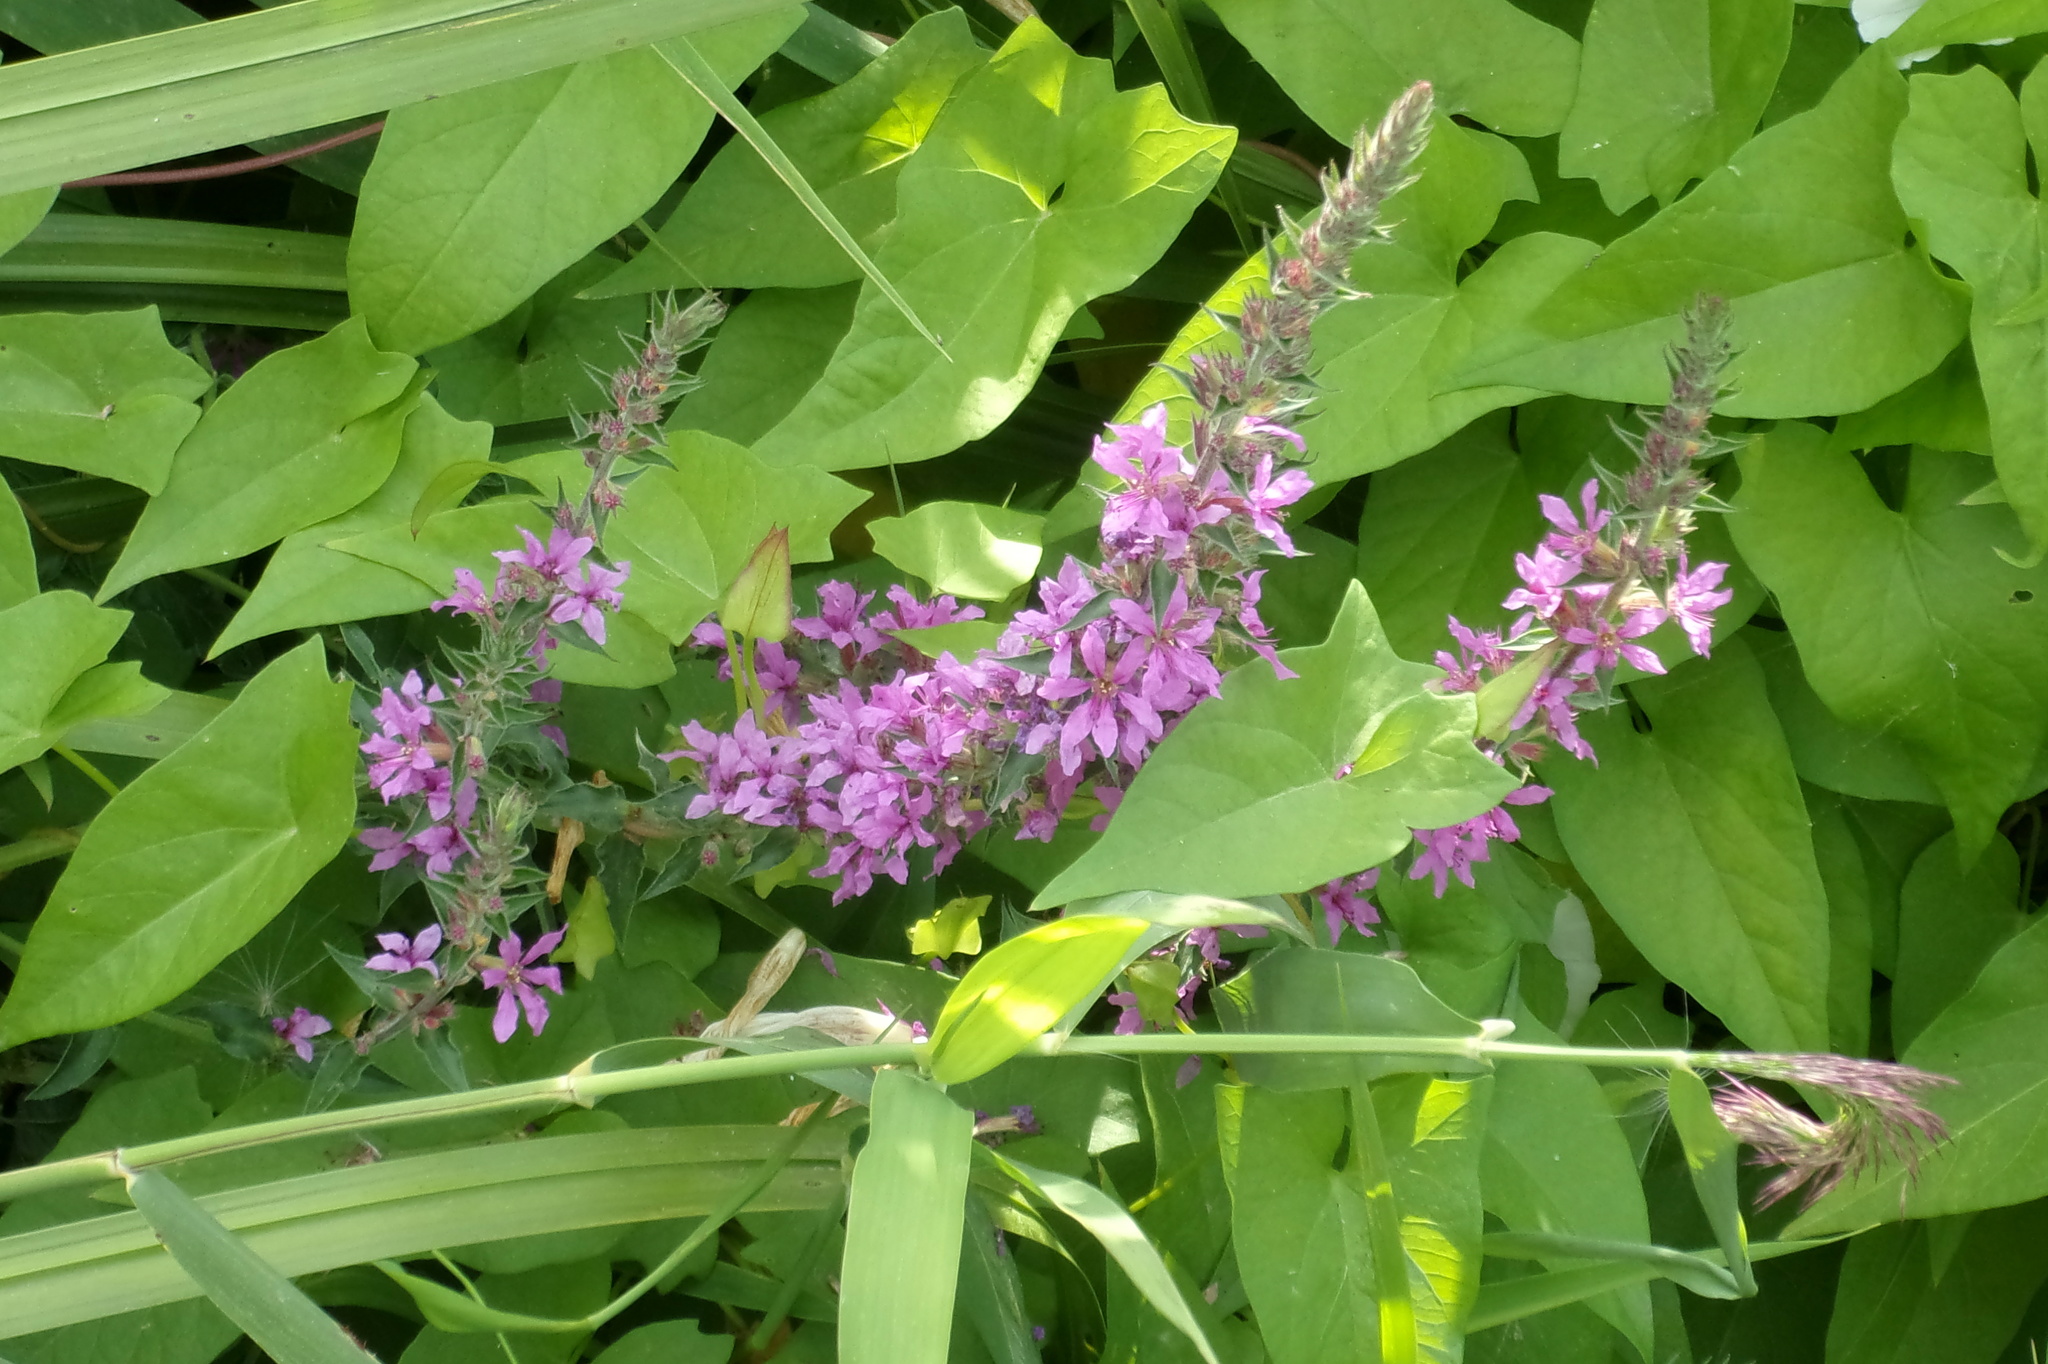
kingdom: Plantae
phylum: Tracheophyta
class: Magnoliopsida
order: Myrtales
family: Lythraceae
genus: Lythrum
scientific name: Lythrum salicaria
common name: Purple loosestrife
